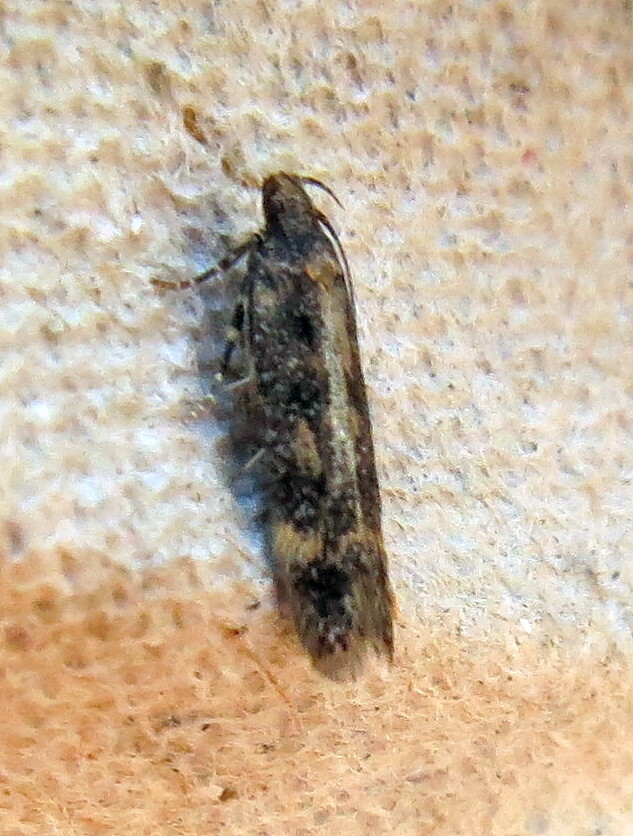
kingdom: Animalia
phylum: Arthropoda
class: Insecta
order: Lepidoptera
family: Gelechiidae
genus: Bryotropha
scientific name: Bryotropha affinis
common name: Dark groundling
